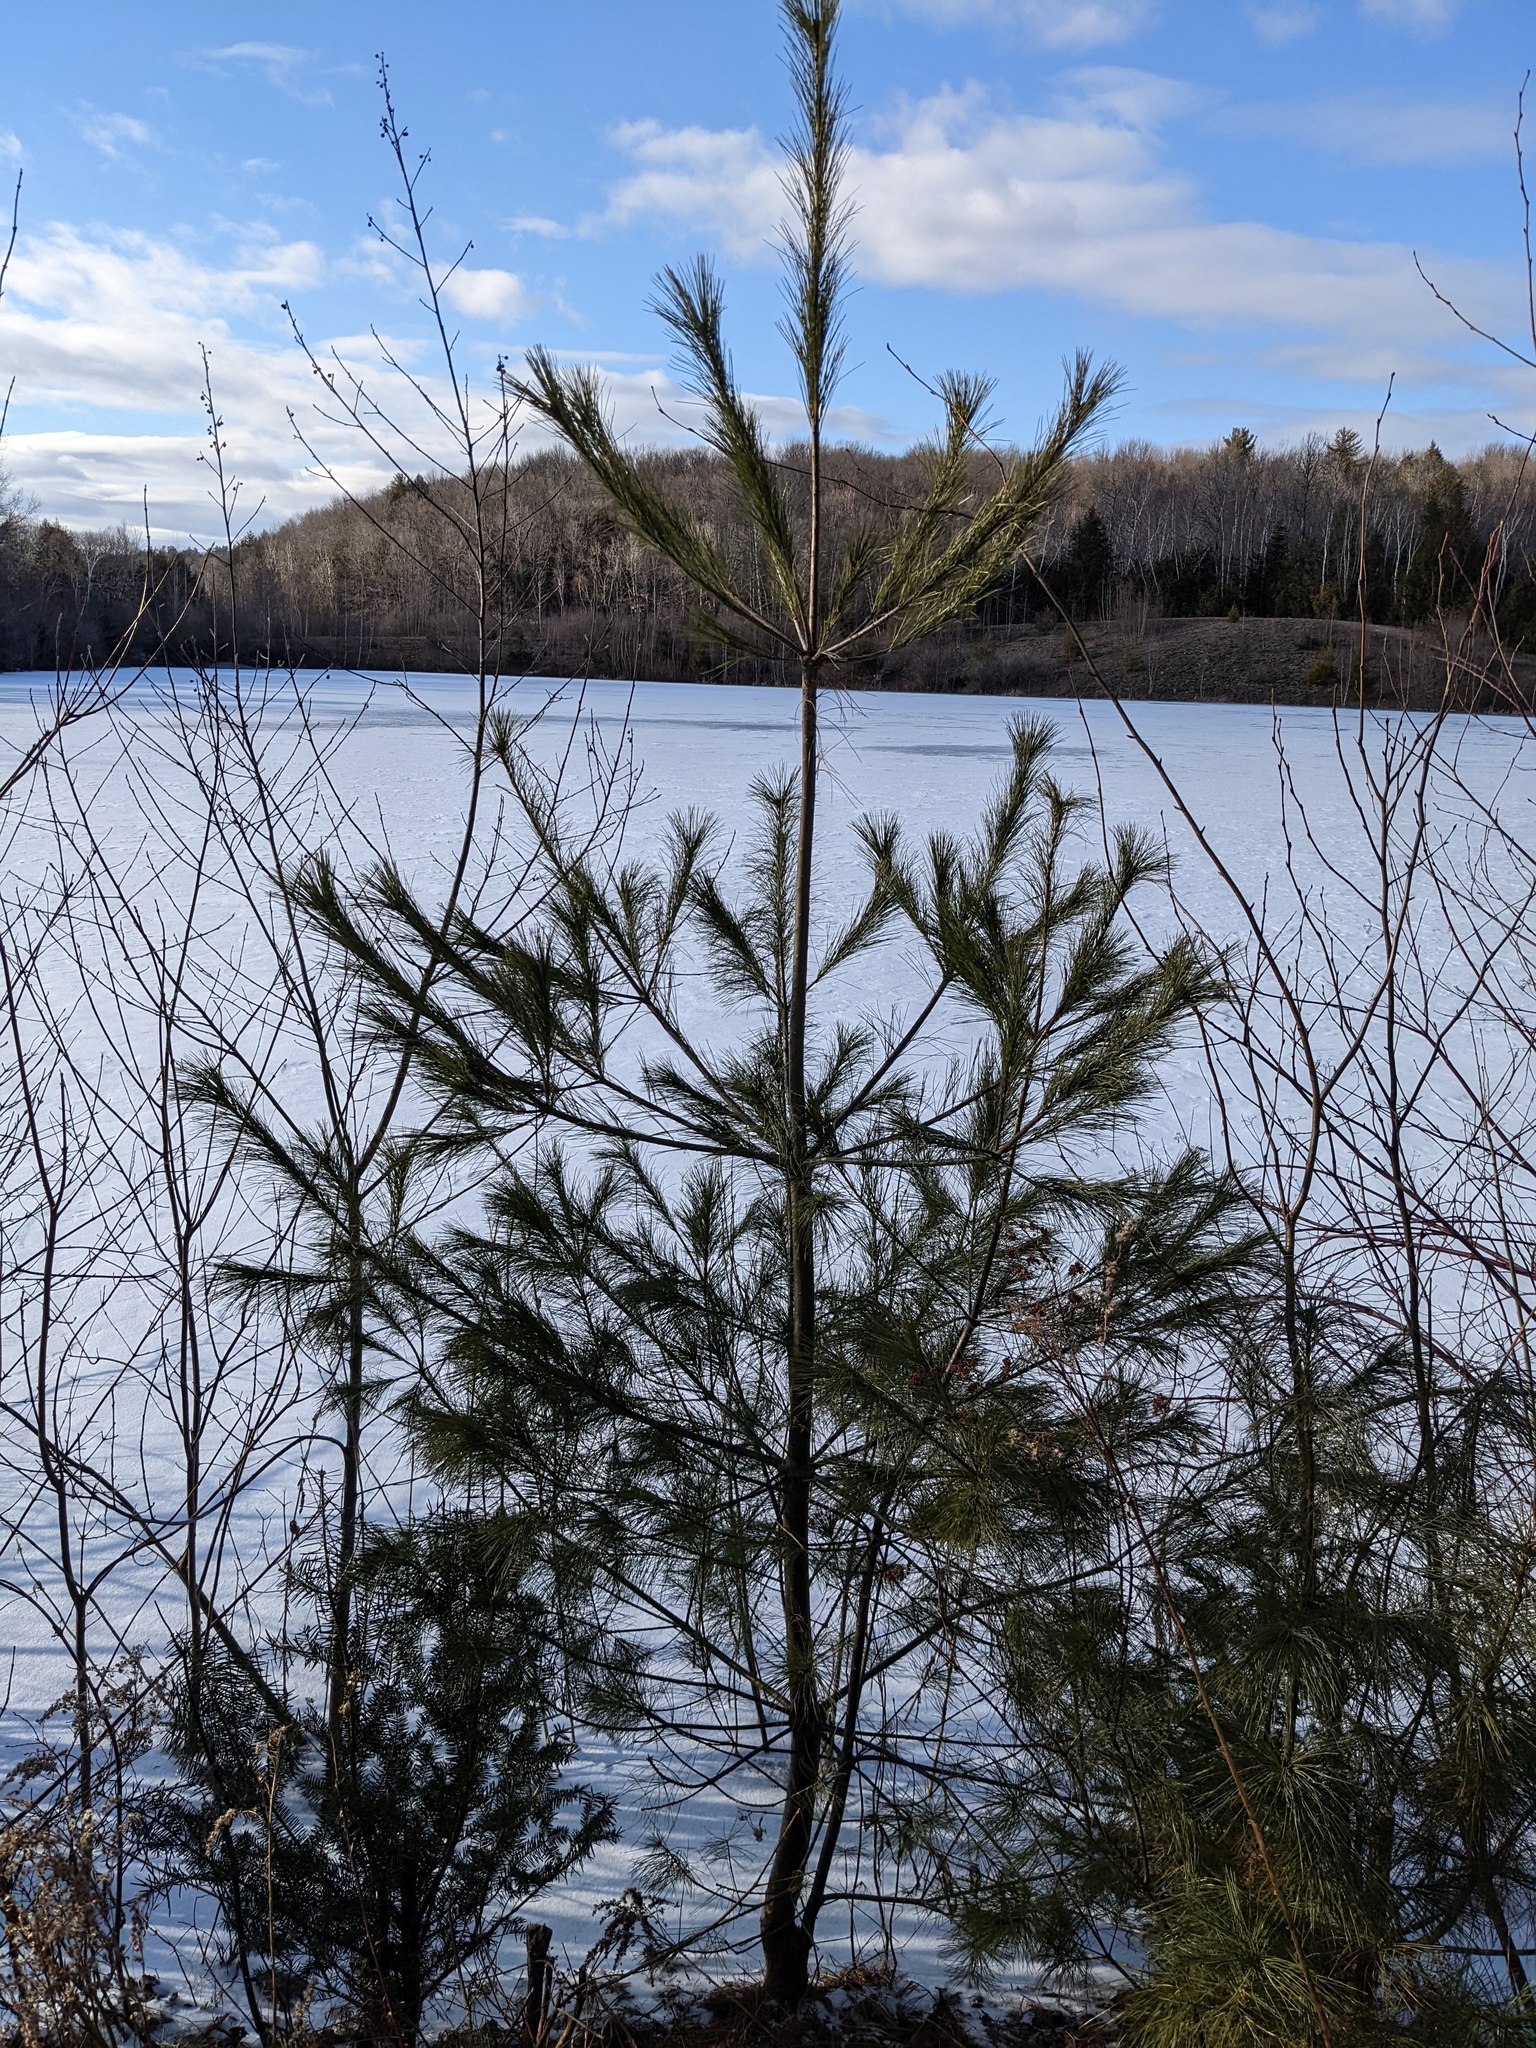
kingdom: Plantae
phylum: Tracheophyta
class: Pinopsida
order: Pinales
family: Pinaceae
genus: Pinus
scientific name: Pinus strobus
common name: Weymouth pine
